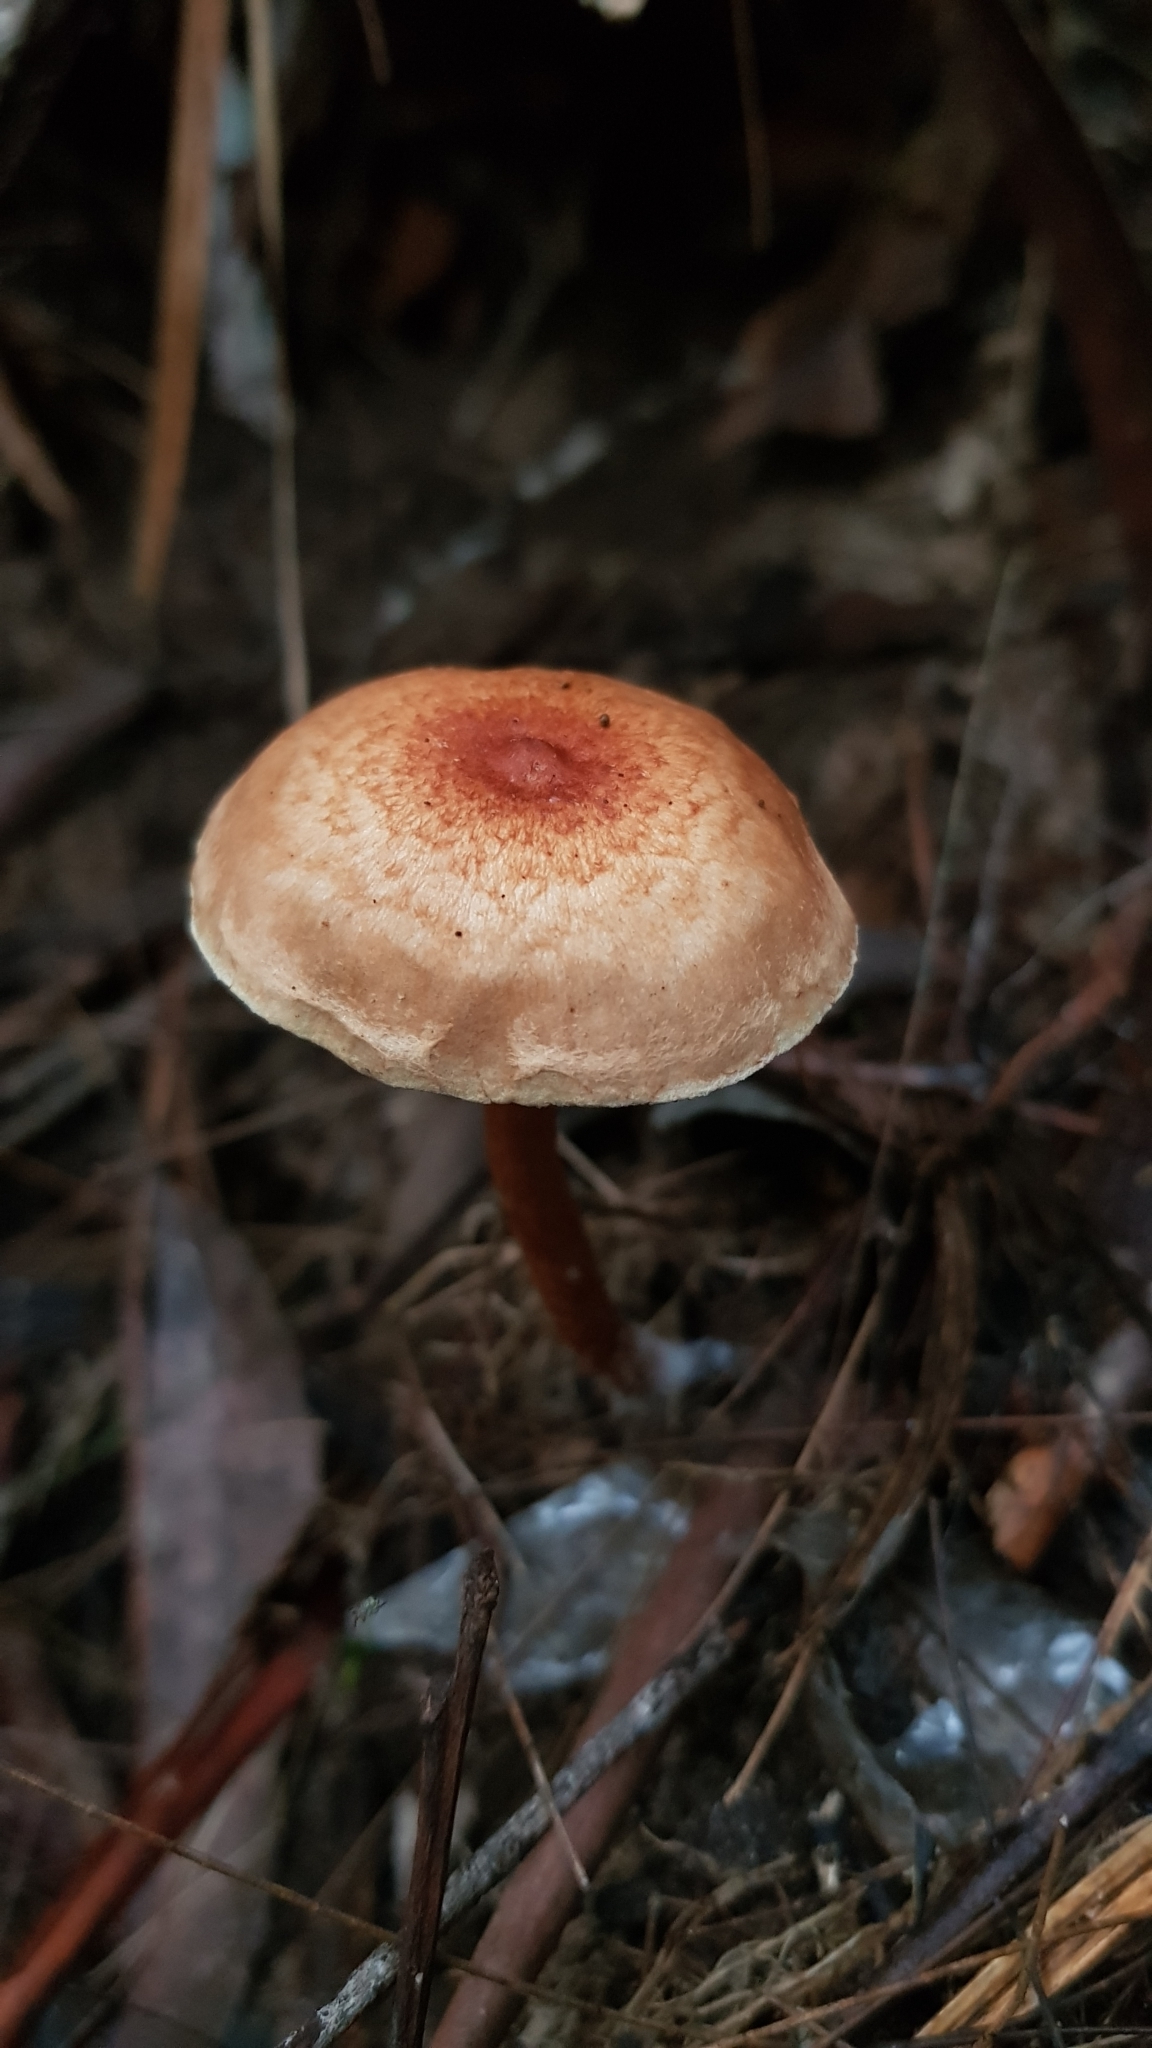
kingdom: Fungi
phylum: Basidiomycota
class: Agaricomycetes
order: Agaricales
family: Strophariaceae
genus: Pholiota
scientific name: Pholiota communis
